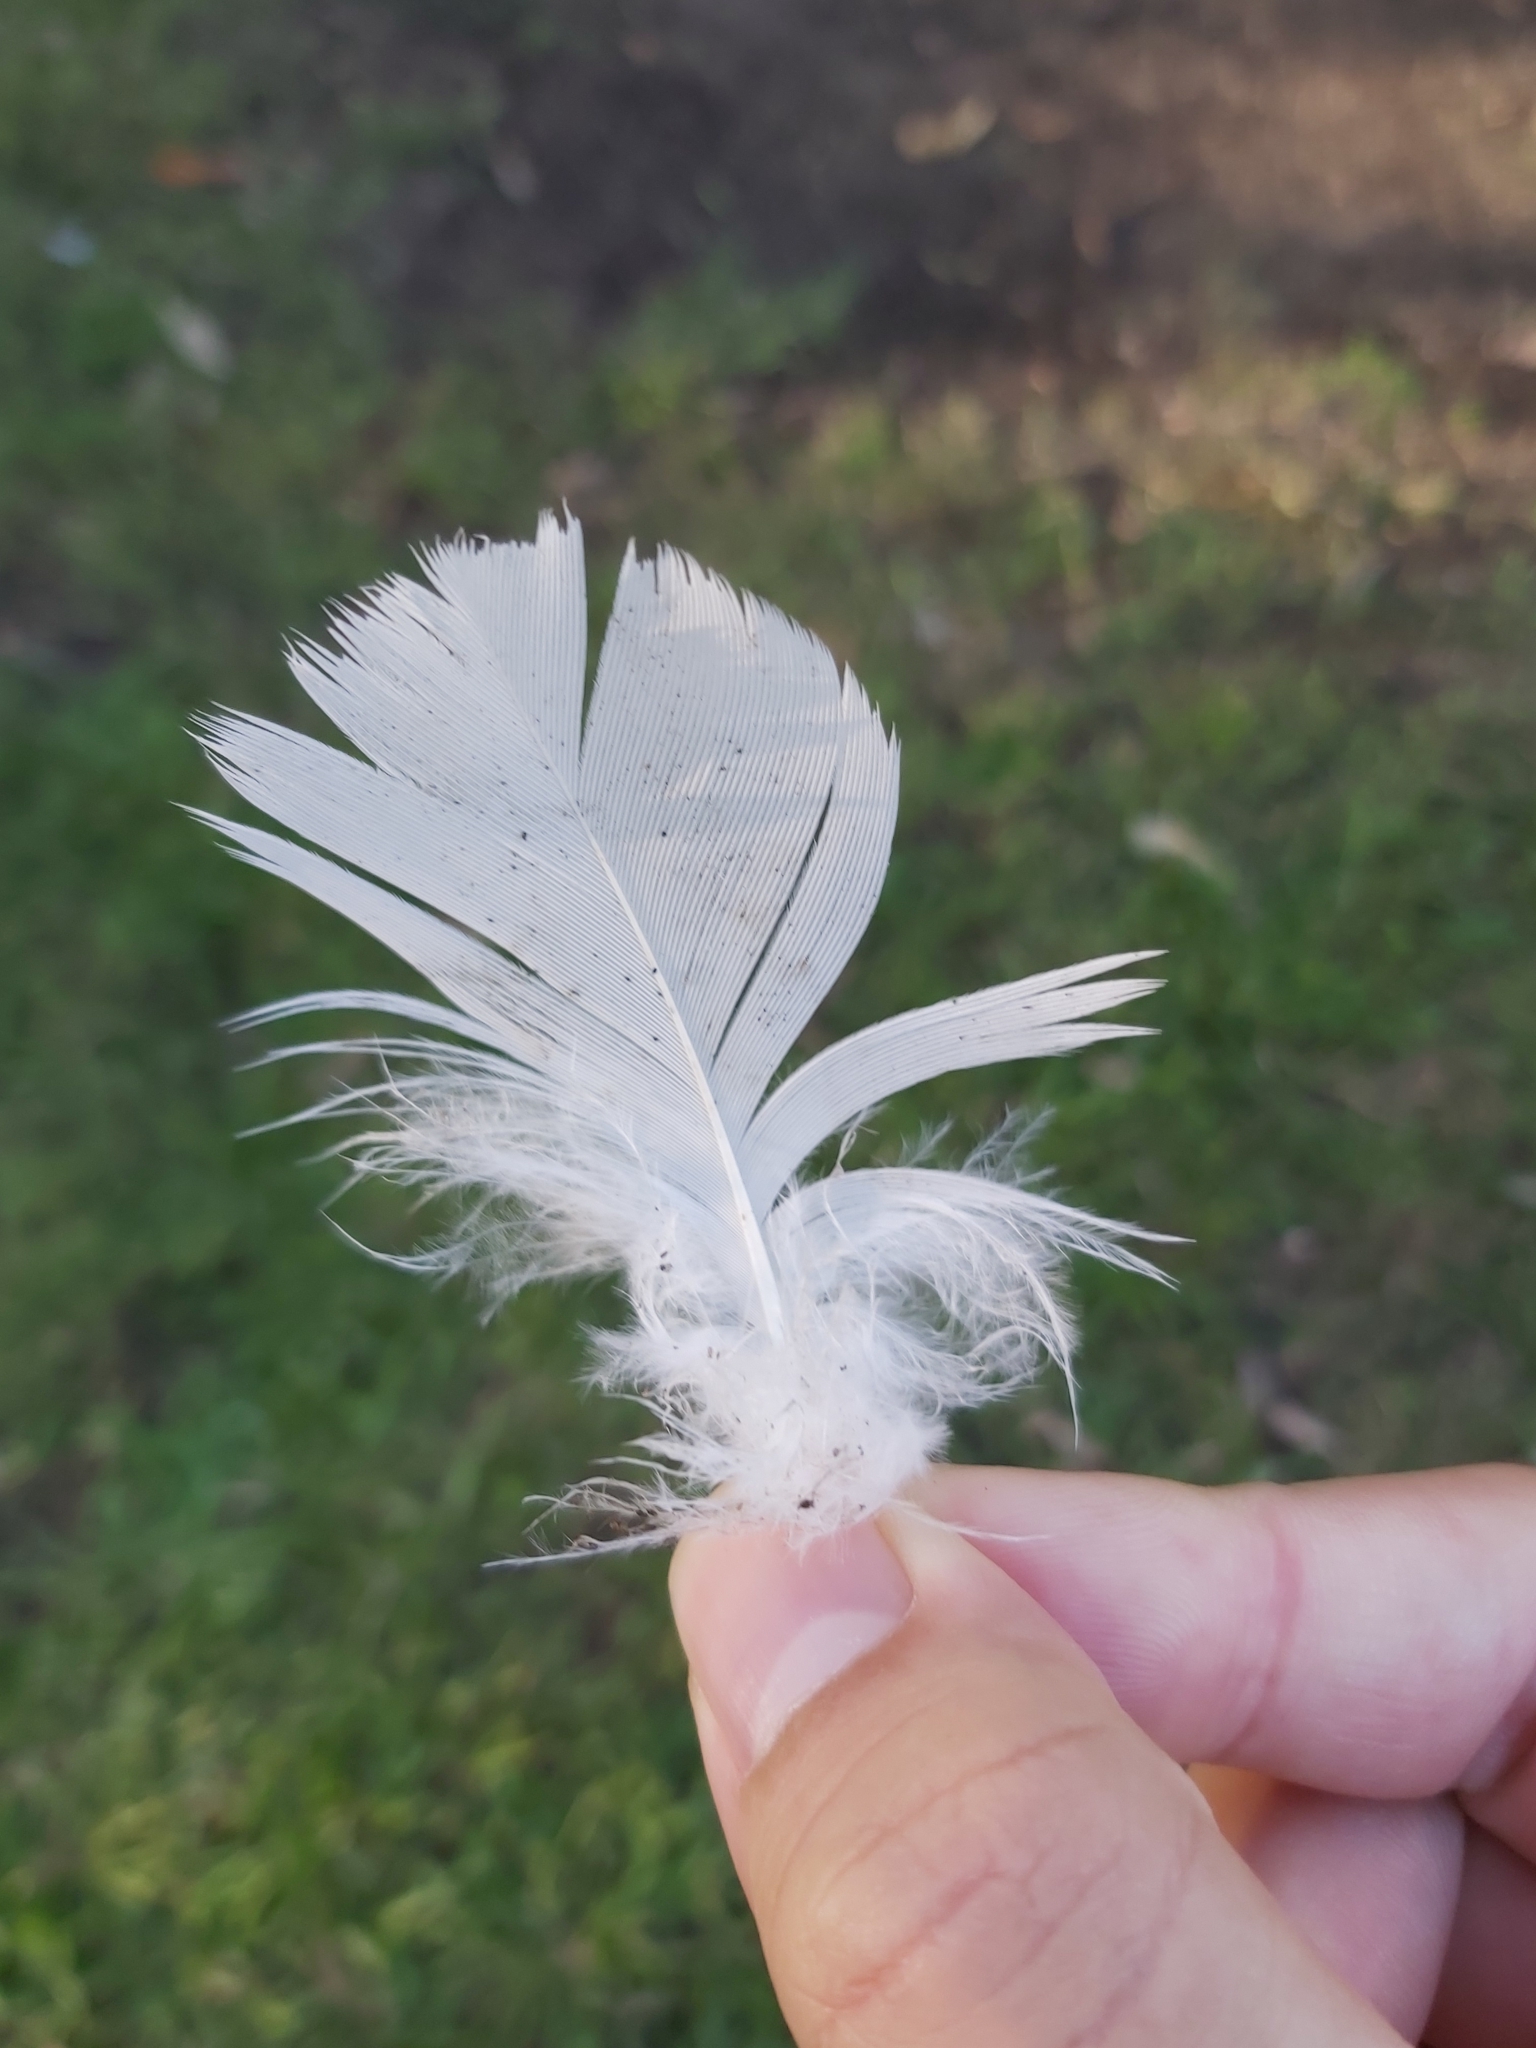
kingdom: Animalia
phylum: Chordata
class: Aves
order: Psittaciformes
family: Psittacidae
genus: Cacatua
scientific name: Cacatua galerita
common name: Sulphur-crested cockatoo
